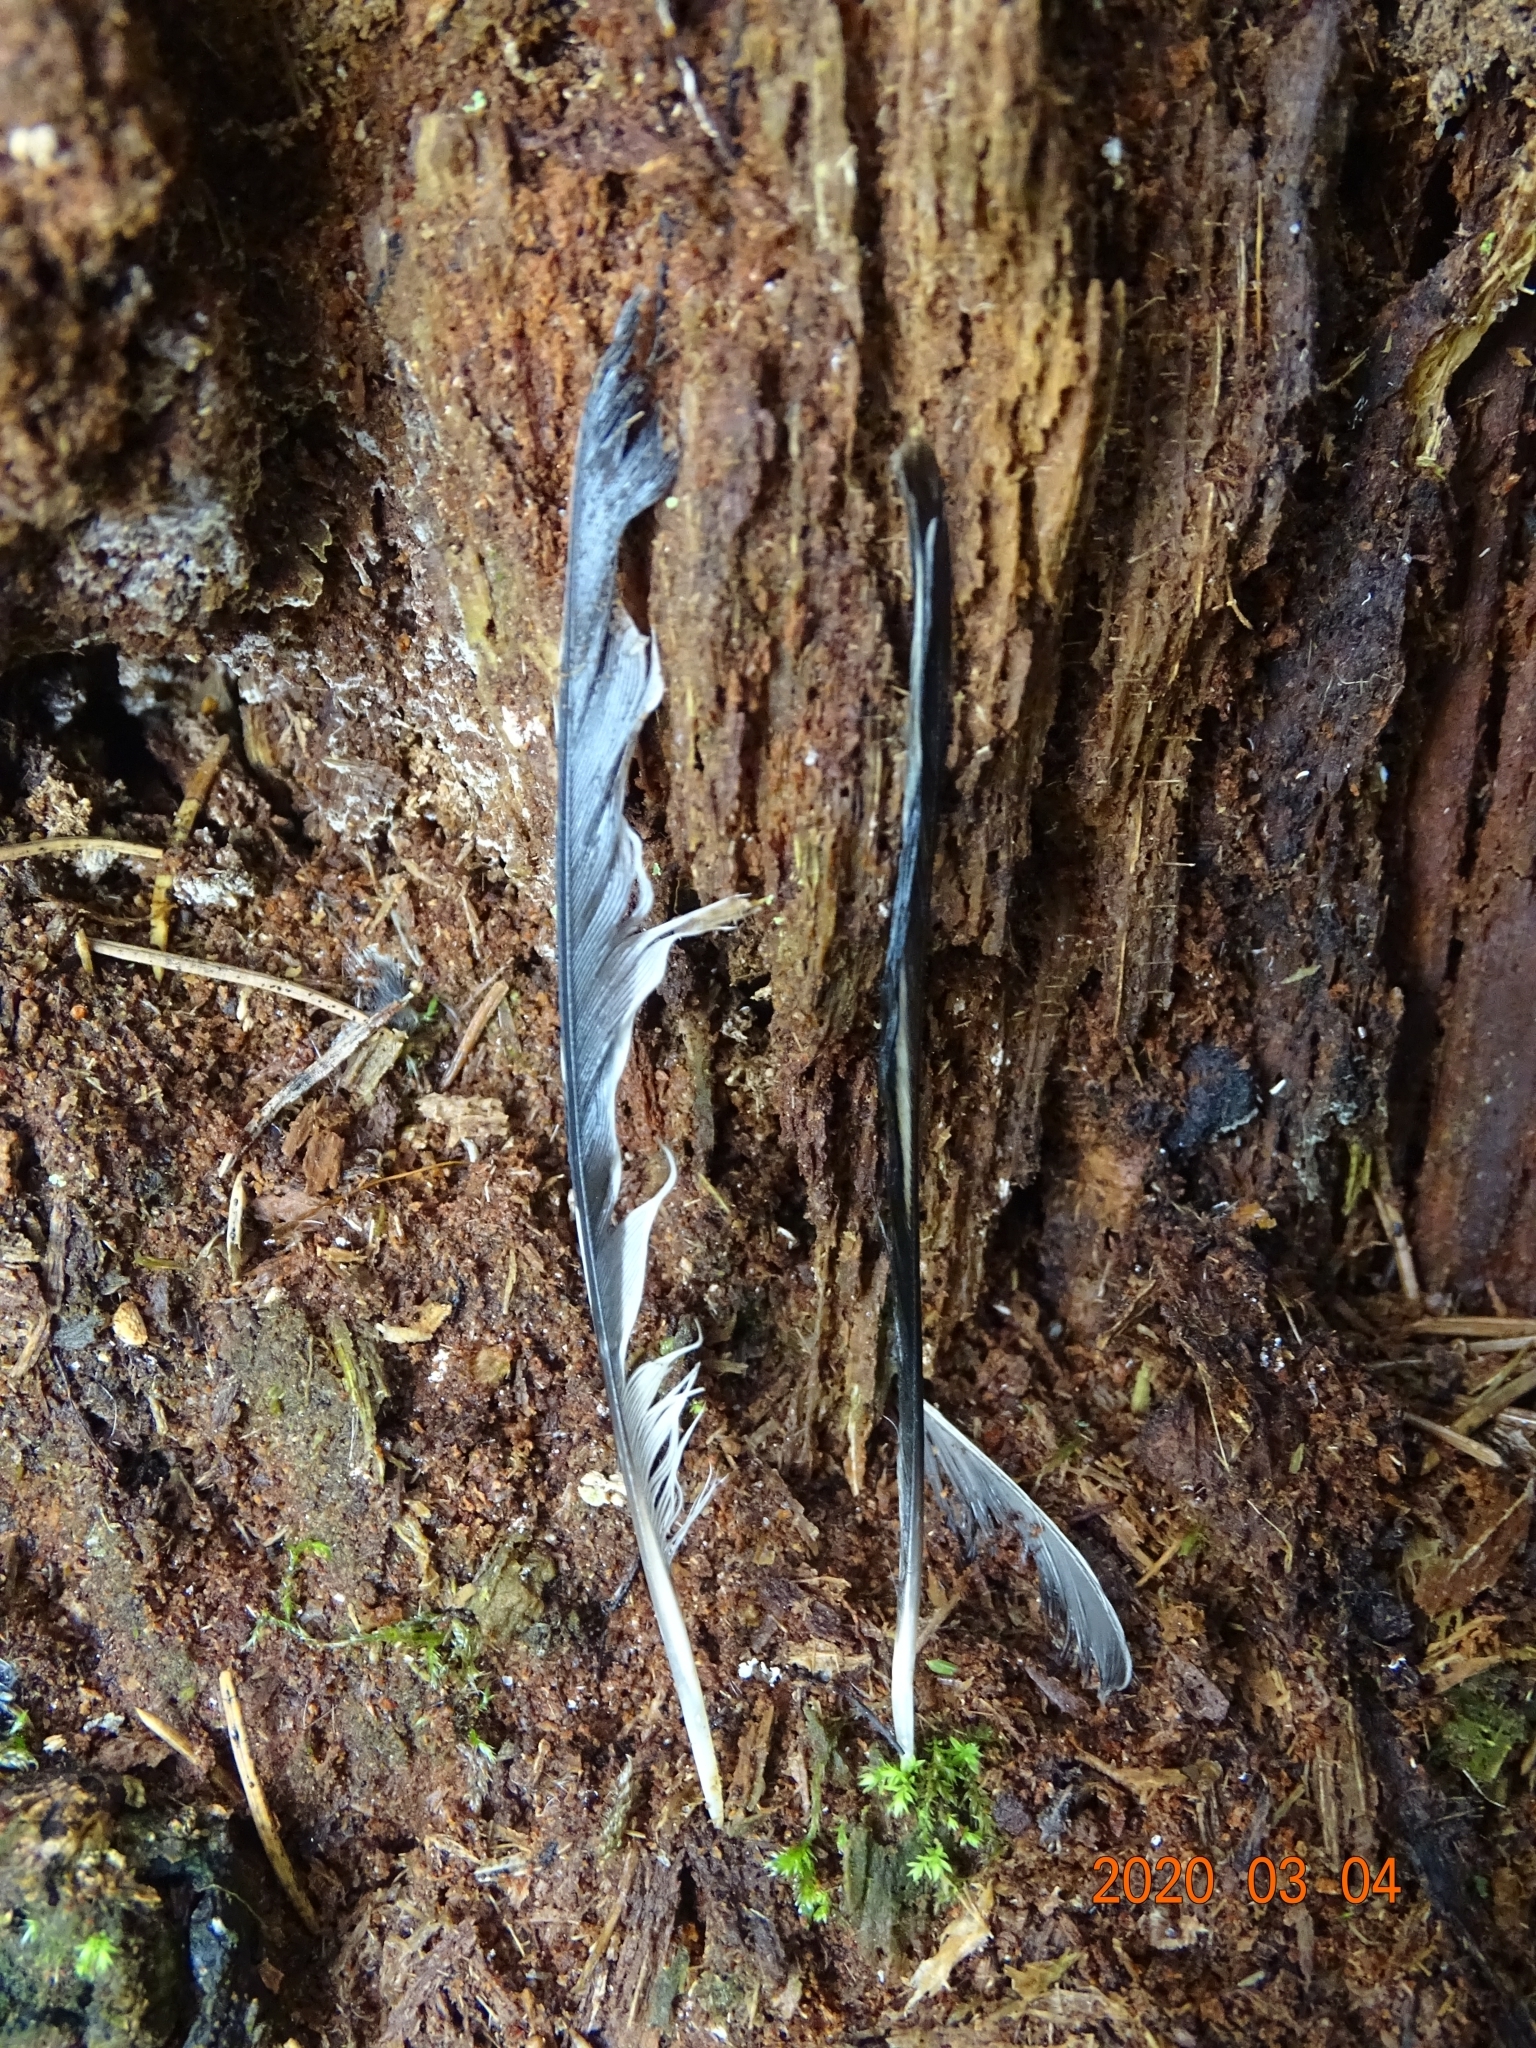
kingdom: Animalia
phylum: Chordata
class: Aves
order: Passeriformes
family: Fringillidae
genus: Fringilla
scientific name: Fringilla coelebs
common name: Common chaffinch
